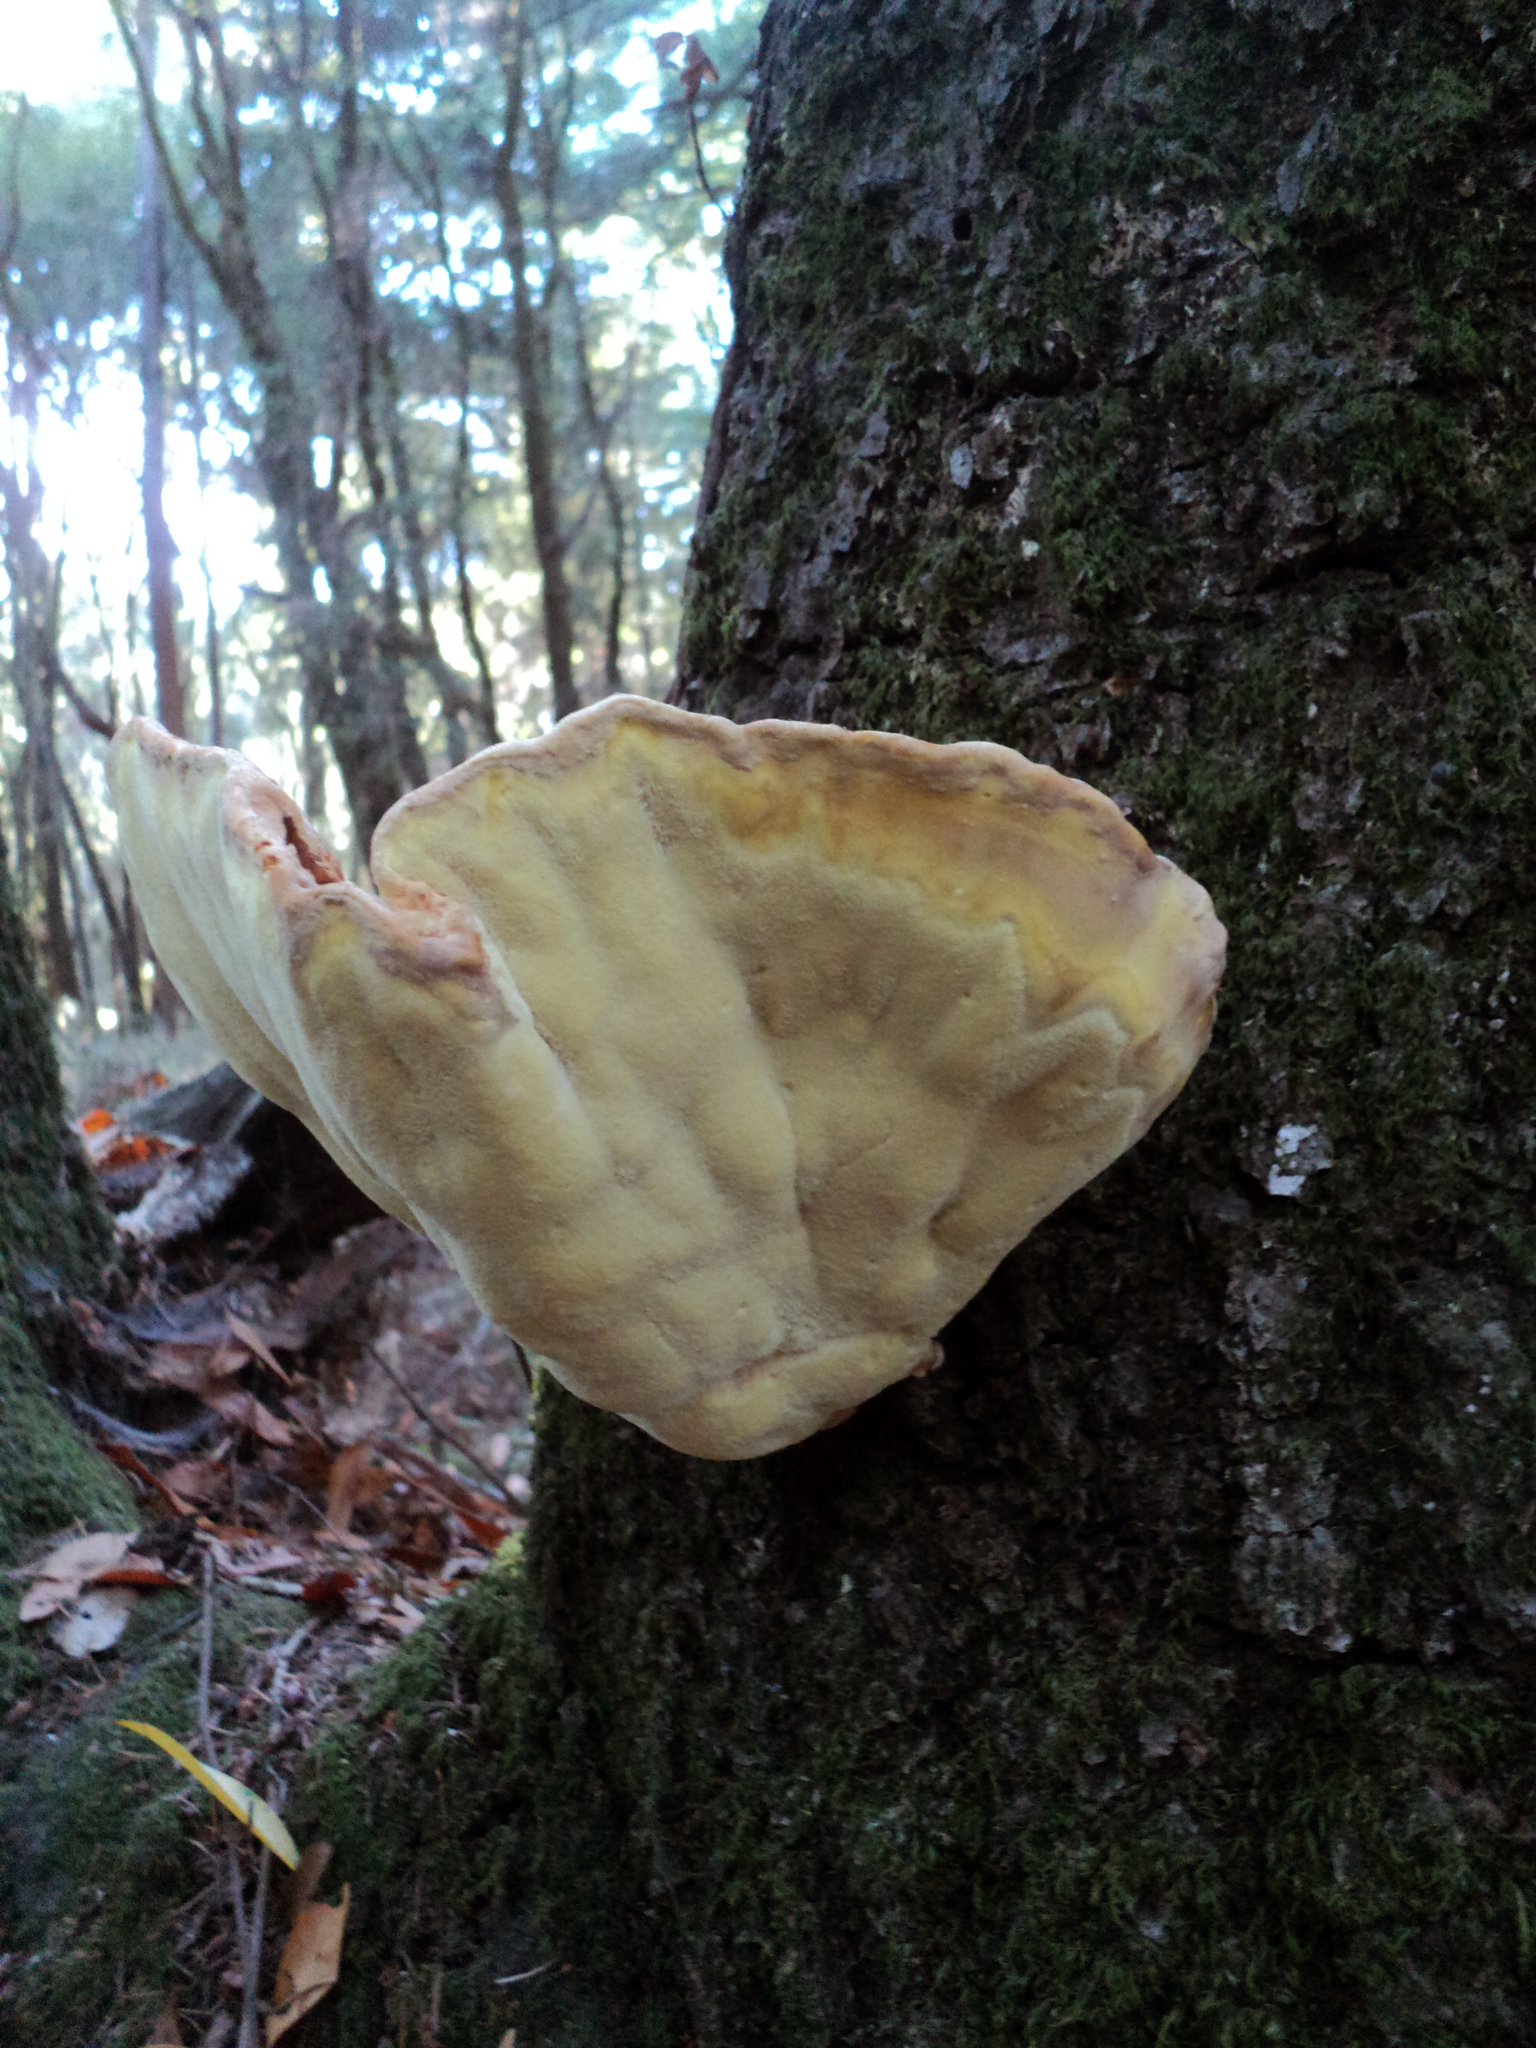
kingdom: Fungi
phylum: Basidiomycota
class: Agaricomycetes
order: Polyporales
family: Laetiporaceae
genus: Laetiporus
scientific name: Laetiporus gilbertsonii
